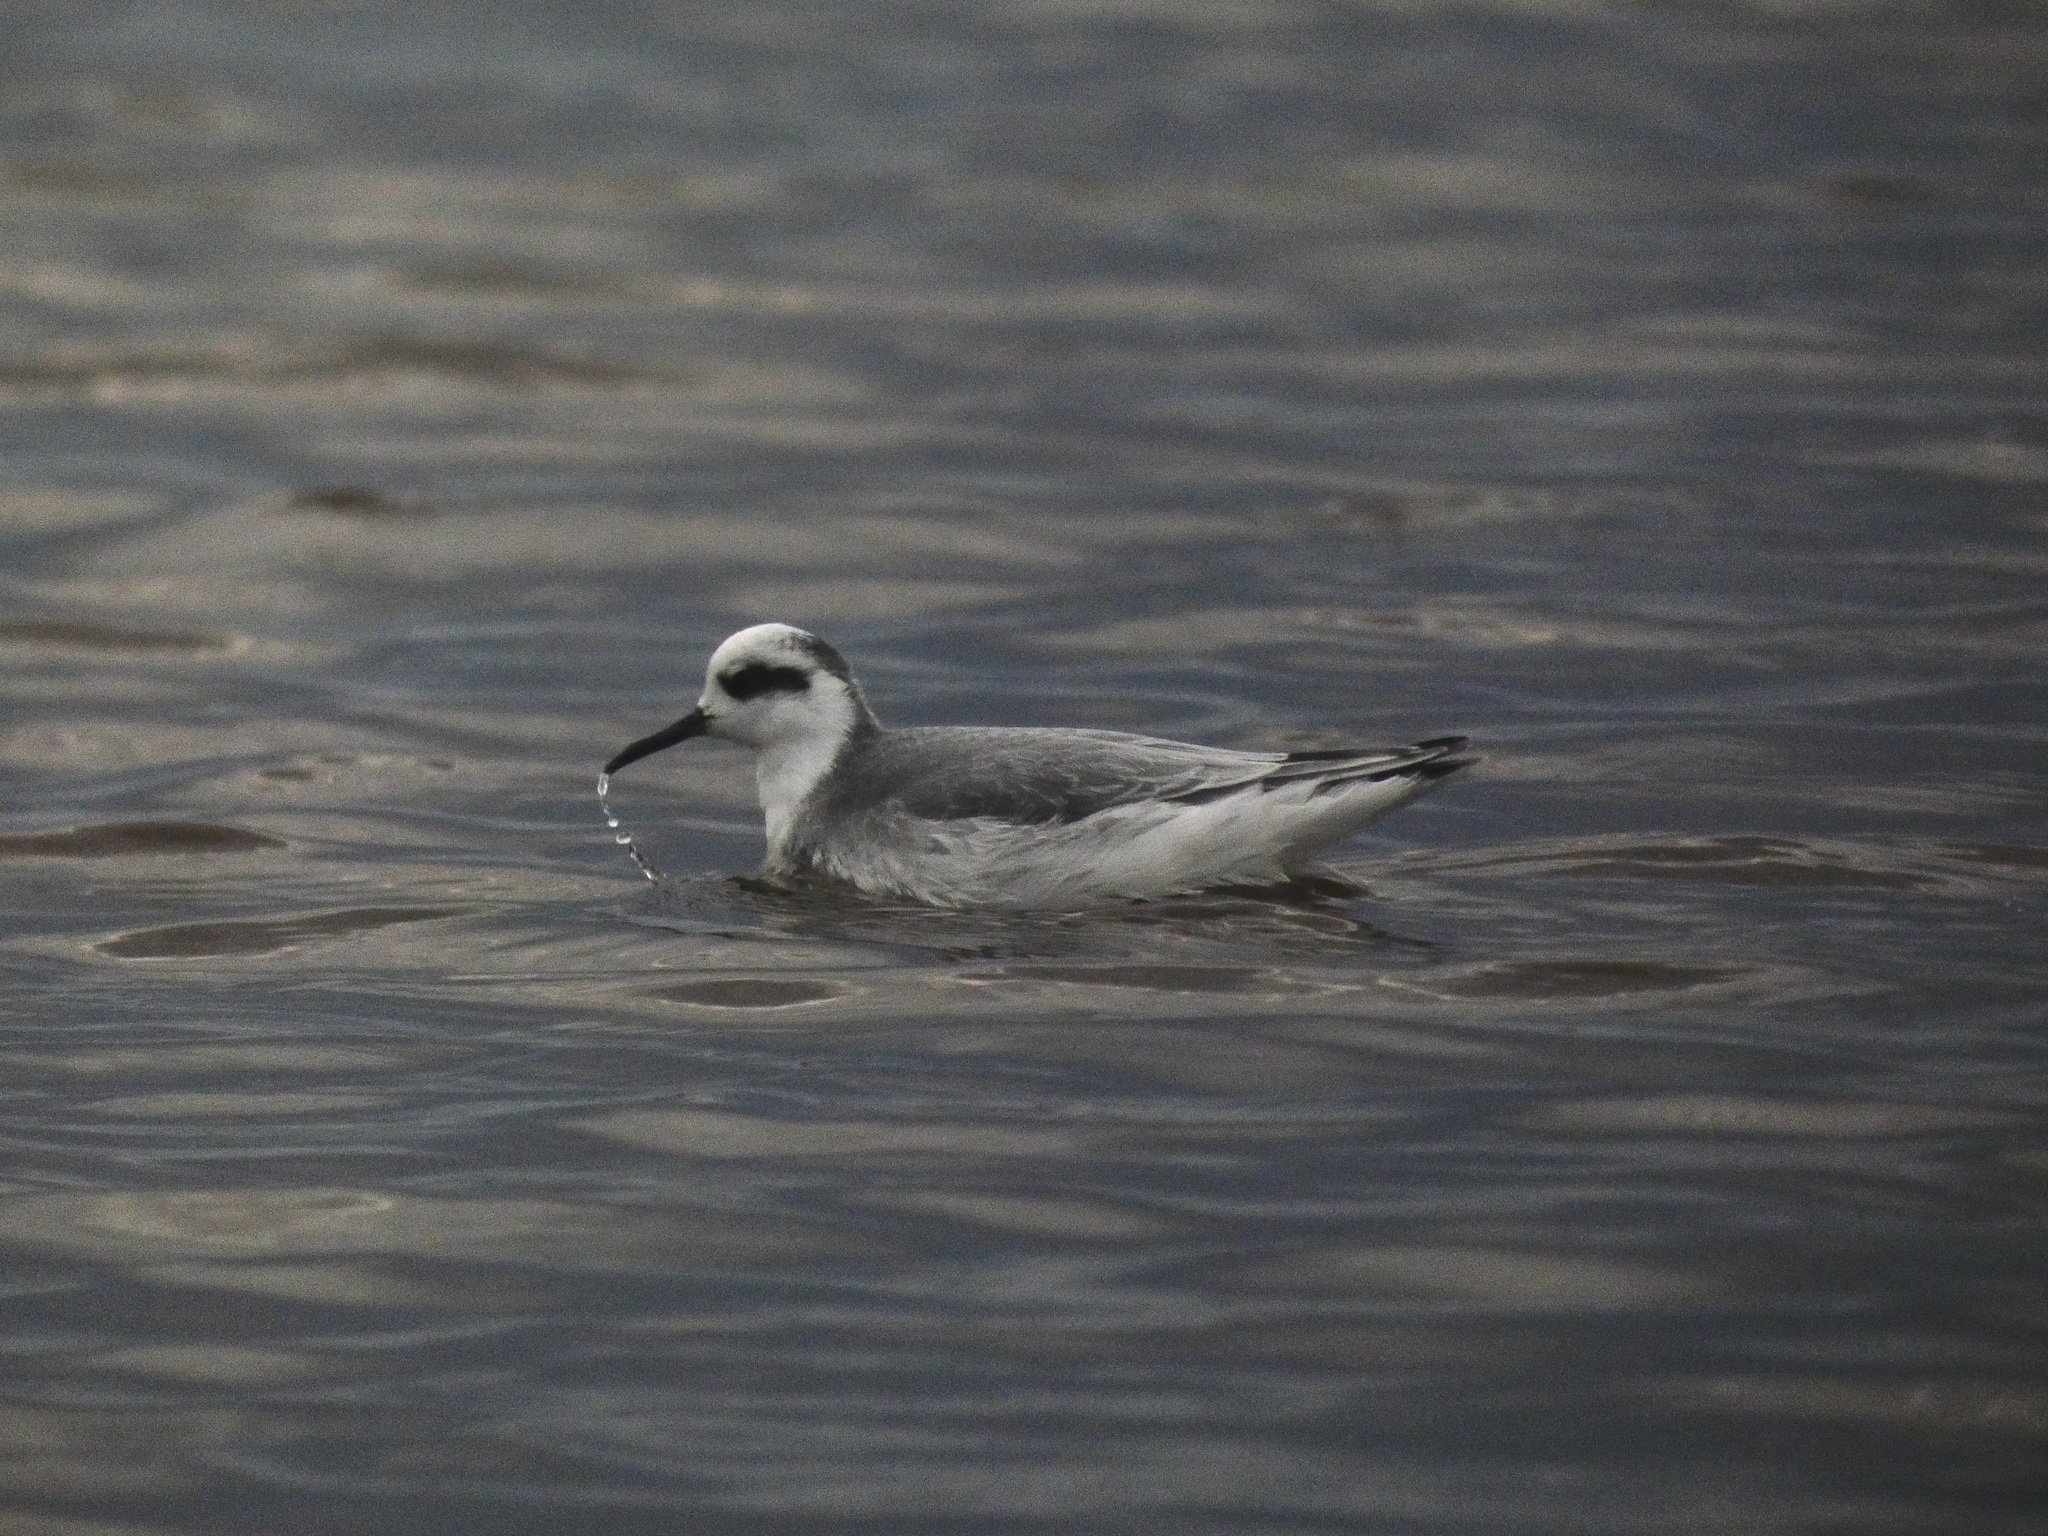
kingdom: Animalia
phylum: Chordata
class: Aves
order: Charadriiformes
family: Scolopacidae
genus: Phalaropus
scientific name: Phalaropus fulicarius
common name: Red phalarope
